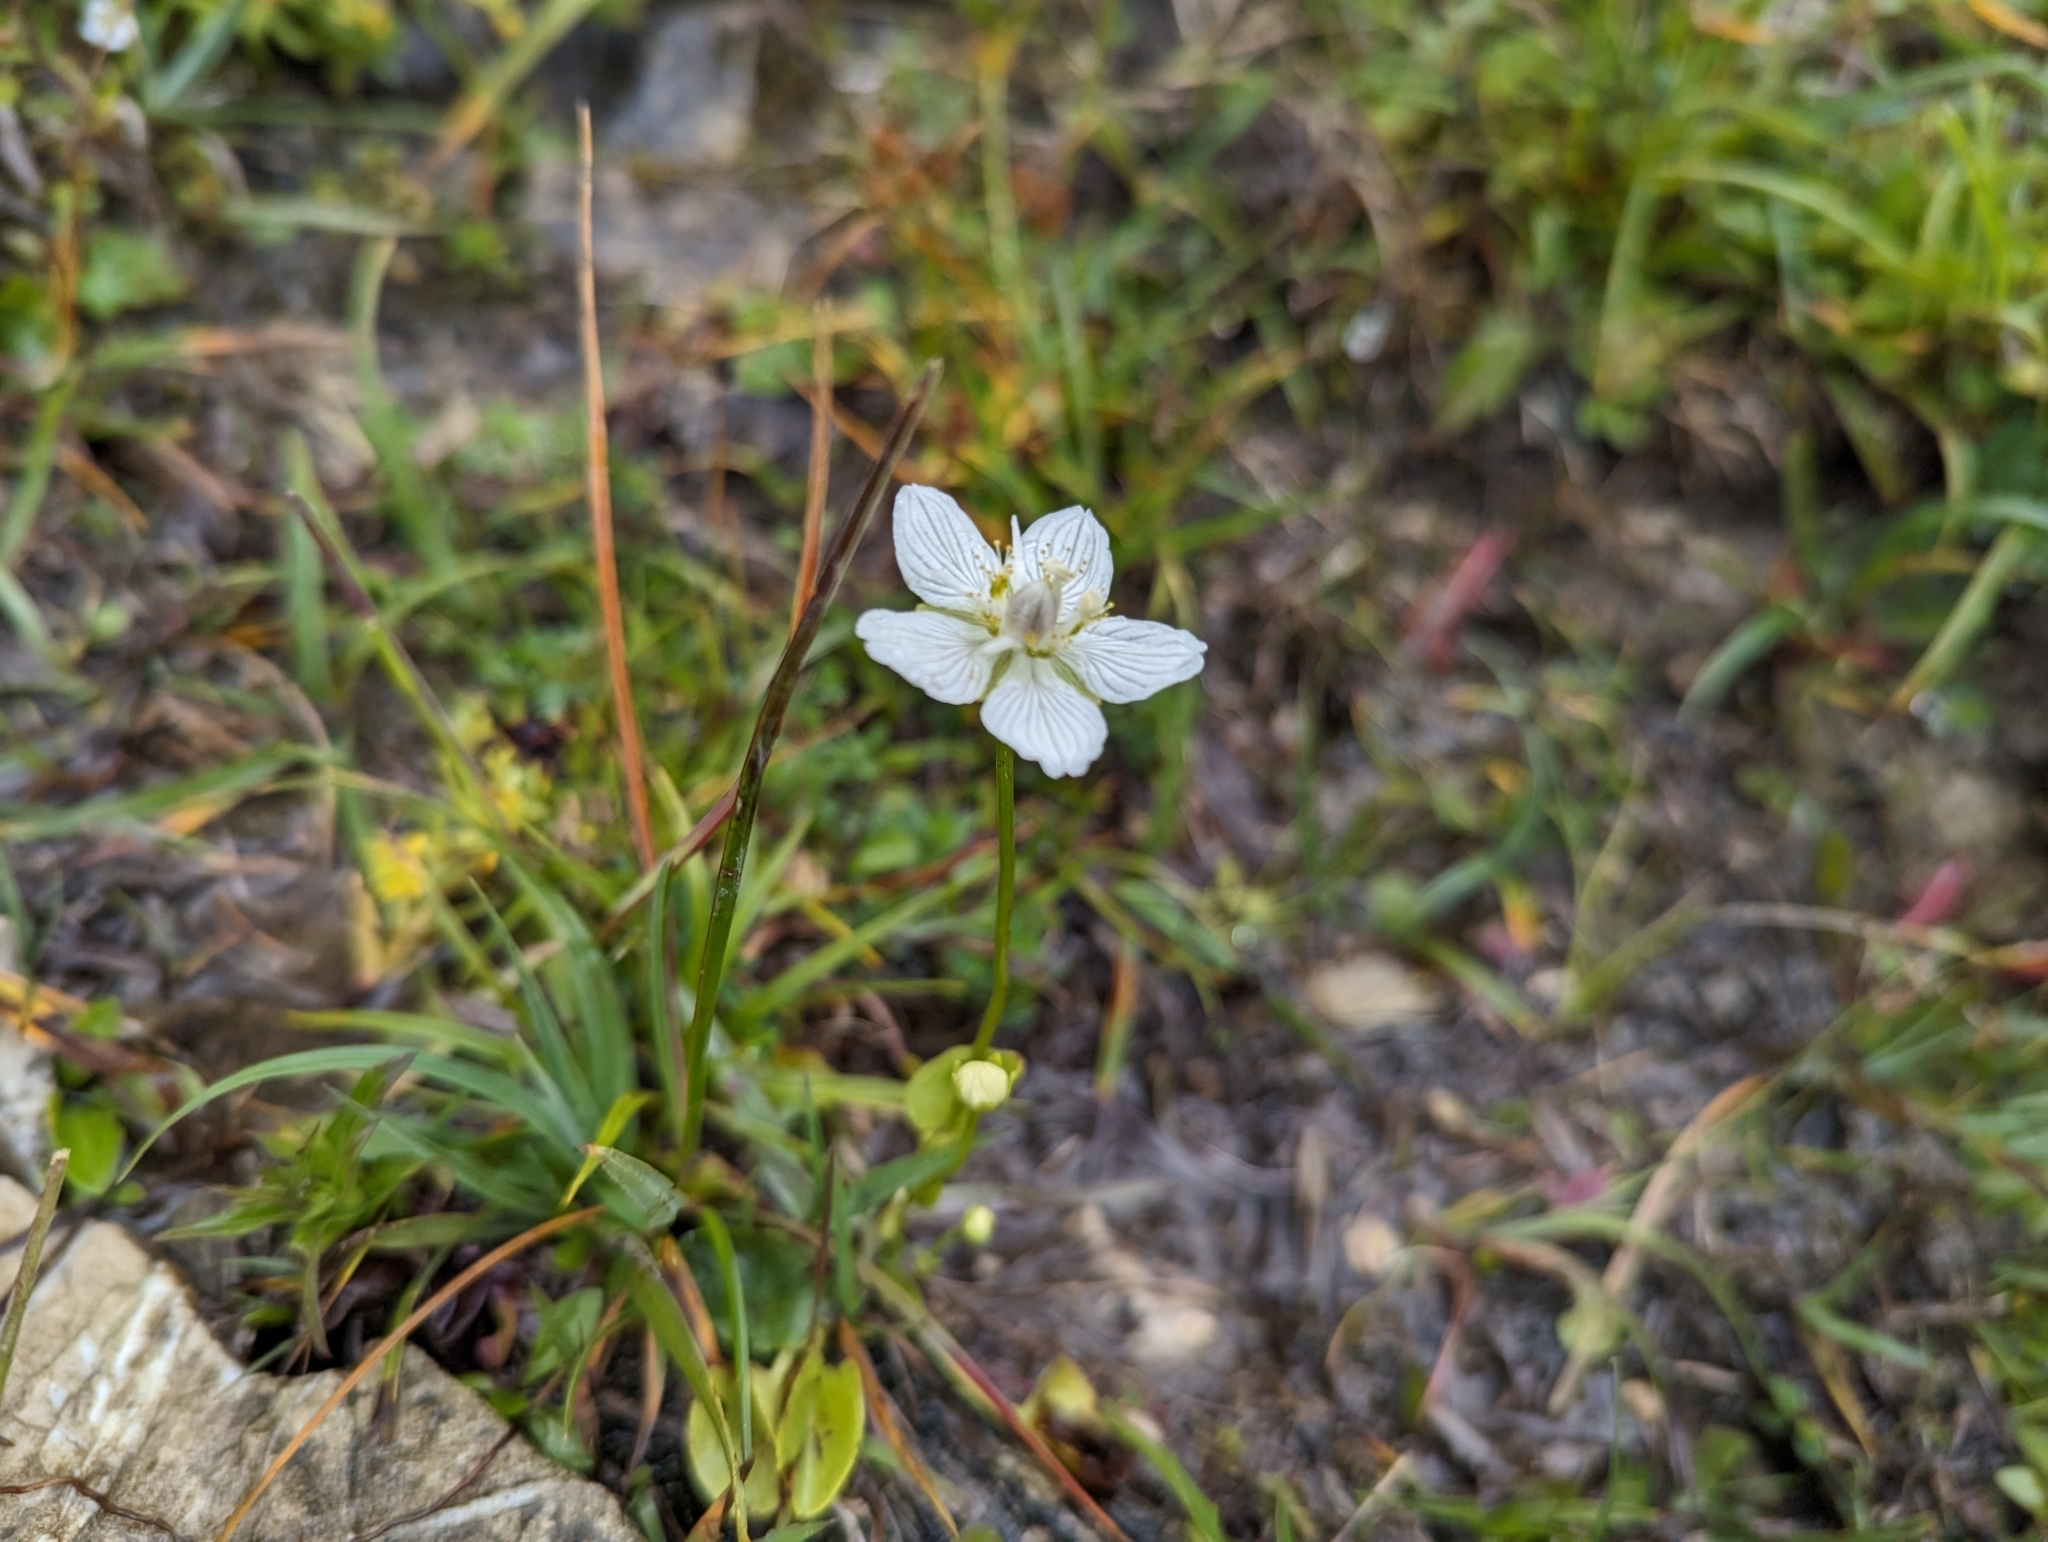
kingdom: Plantae
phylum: Tracheophyta
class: Magnoliopsida
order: Celastrales
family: Parnassiaceae
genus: Parnassia
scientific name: Parnassia palustris
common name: Grass-of-parnassus
